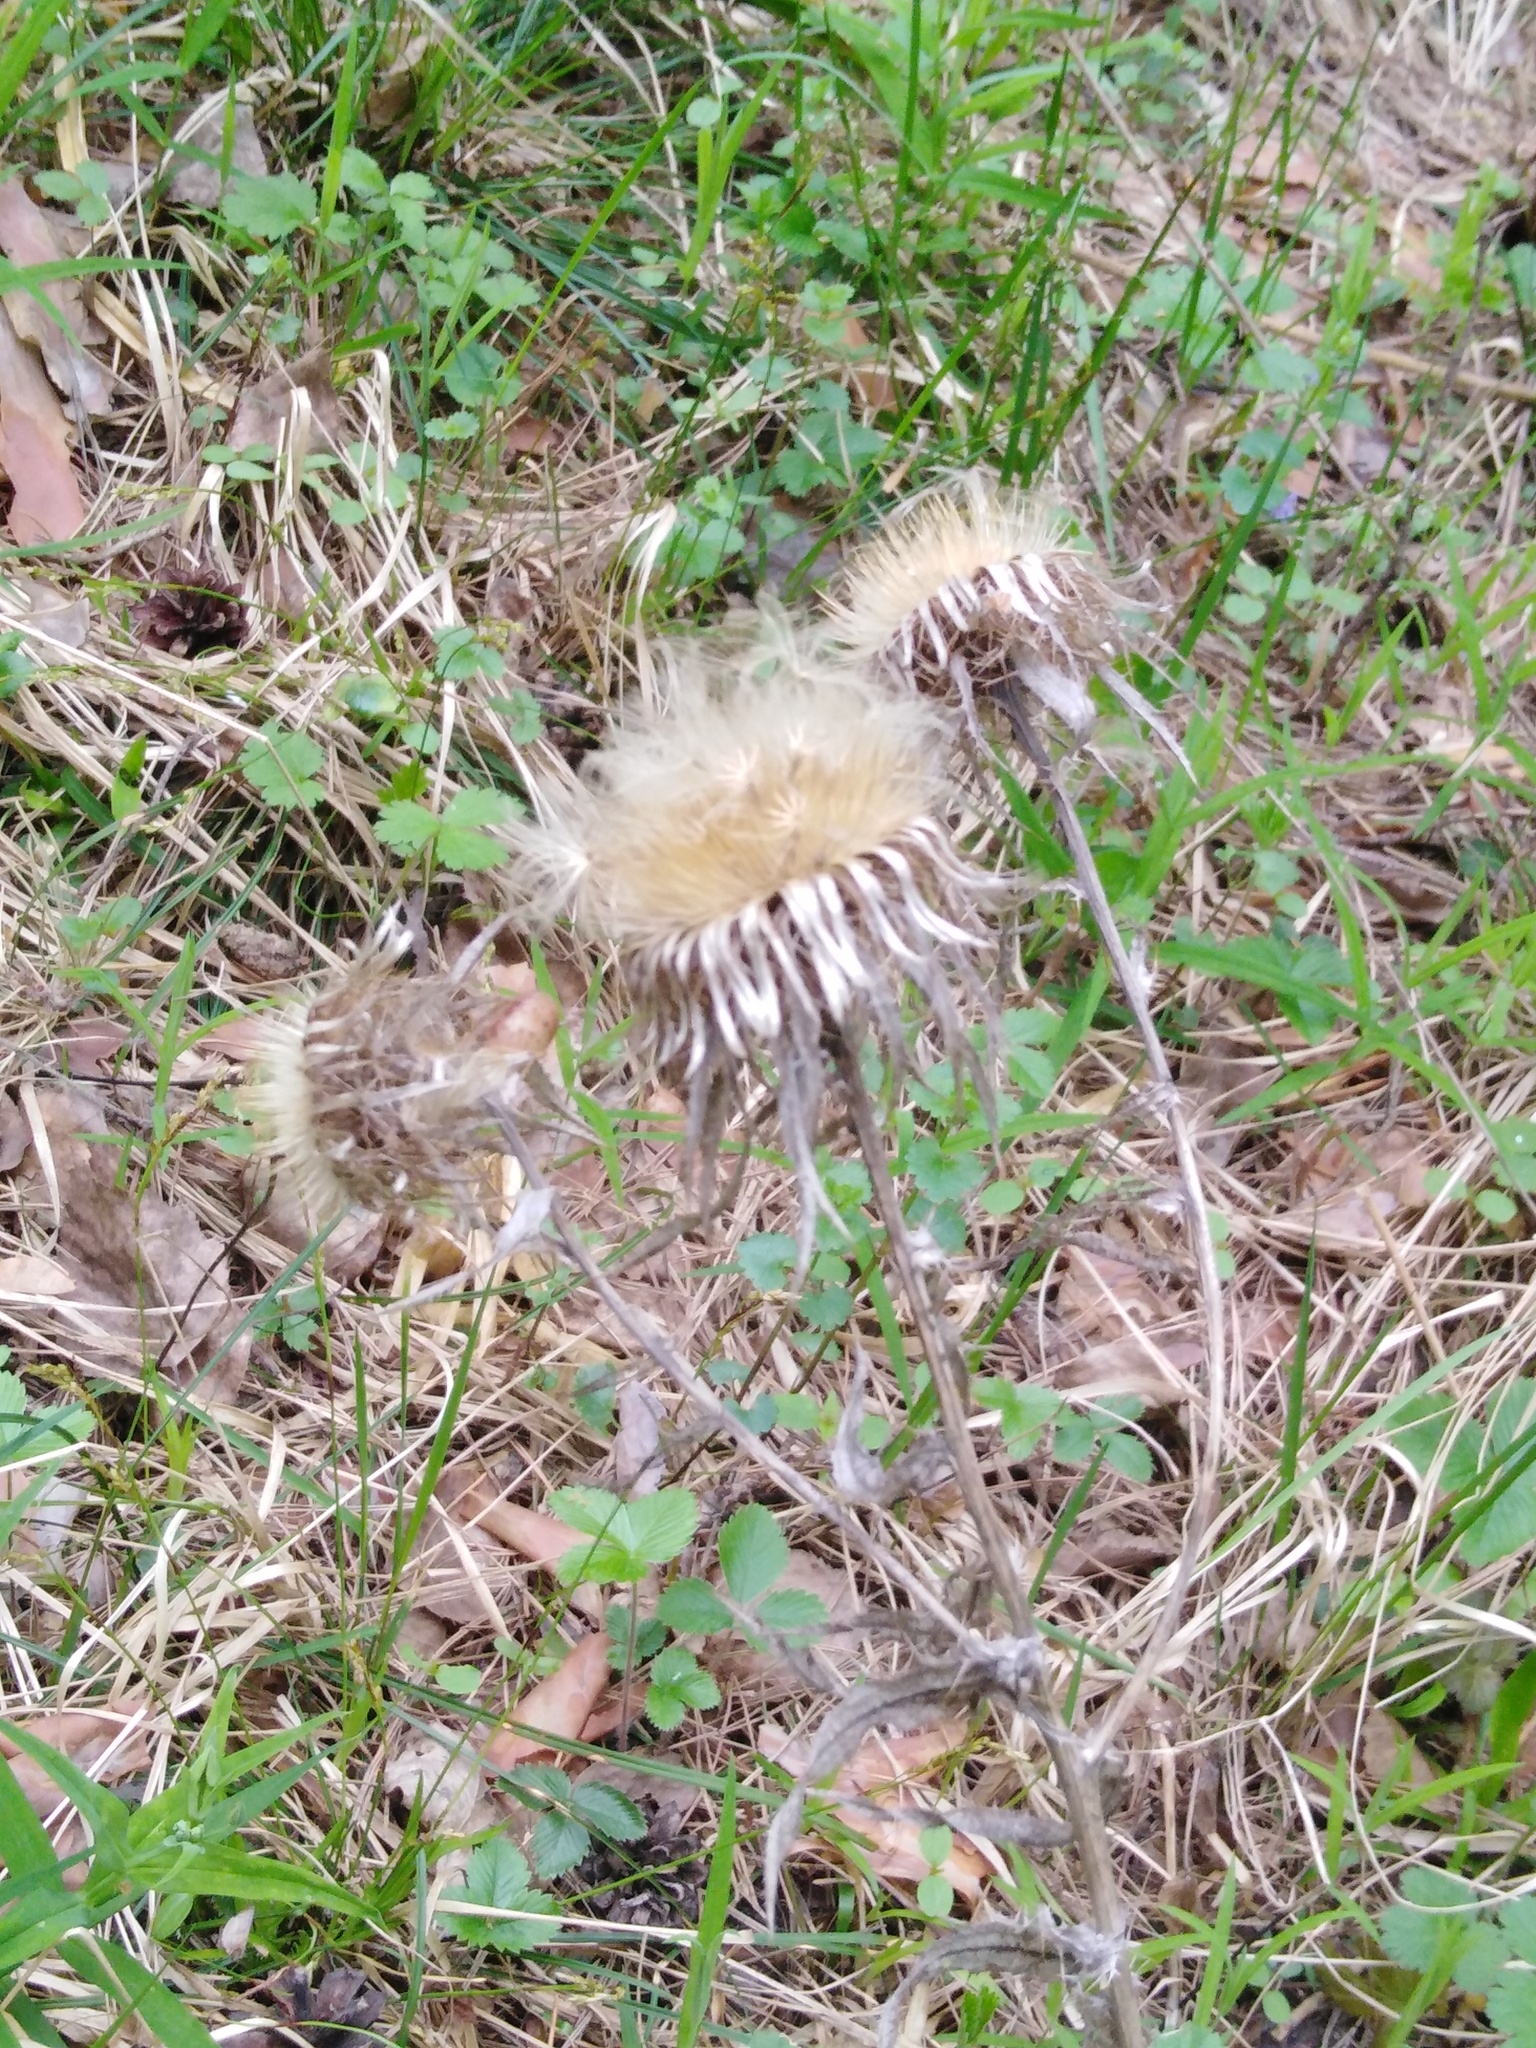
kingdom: Plantae
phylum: Tracheophyta
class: Magnoliopsida
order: Asterales
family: Asteraceae
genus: Carlina
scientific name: Carlina biebersteinii
